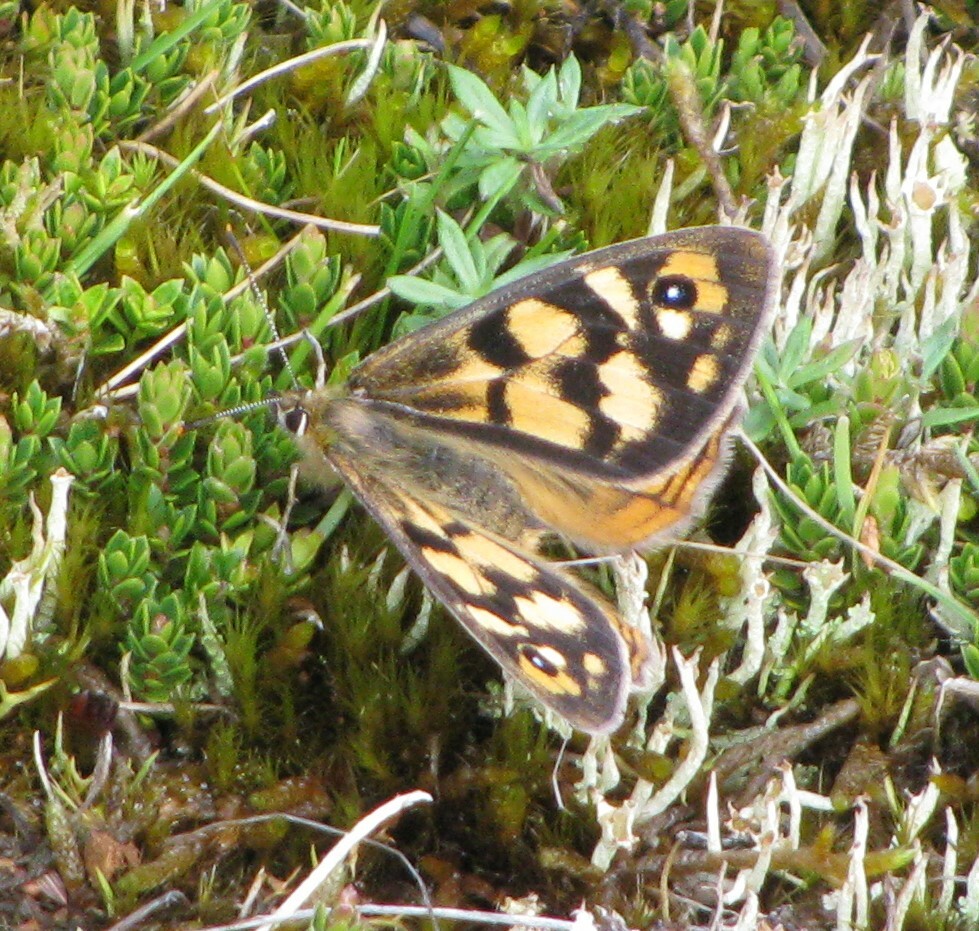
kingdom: Animalia
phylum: Arthropoda
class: Insecta
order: Lepidoptera
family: Nymphalidae
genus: Heteronympha
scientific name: Heteronympha penelope
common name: Shouldered brown
